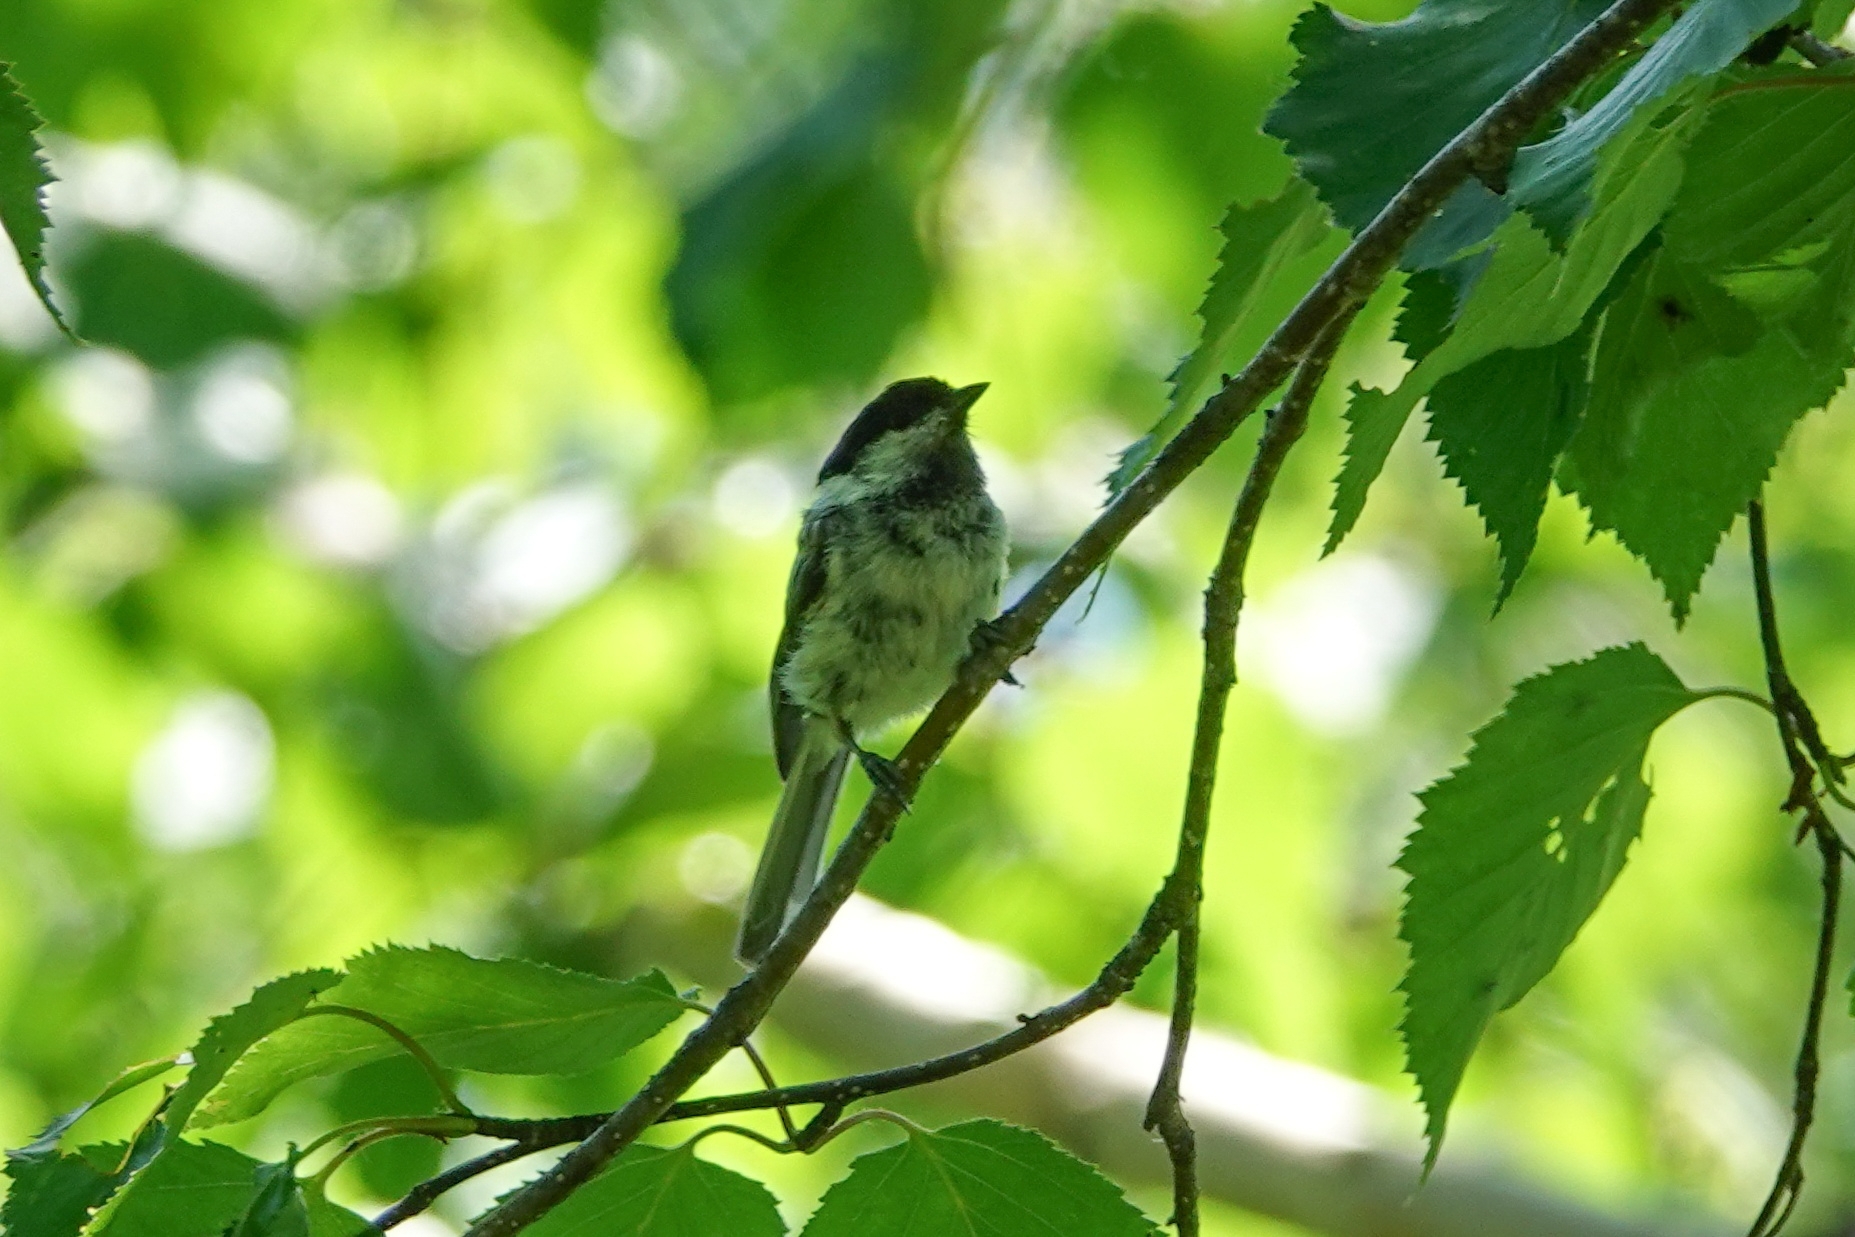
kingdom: Animalia
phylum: Chordata
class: Aves
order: Passeriformes
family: Paridae
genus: Poecile
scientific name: Poecile montanus
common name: Willow tit
